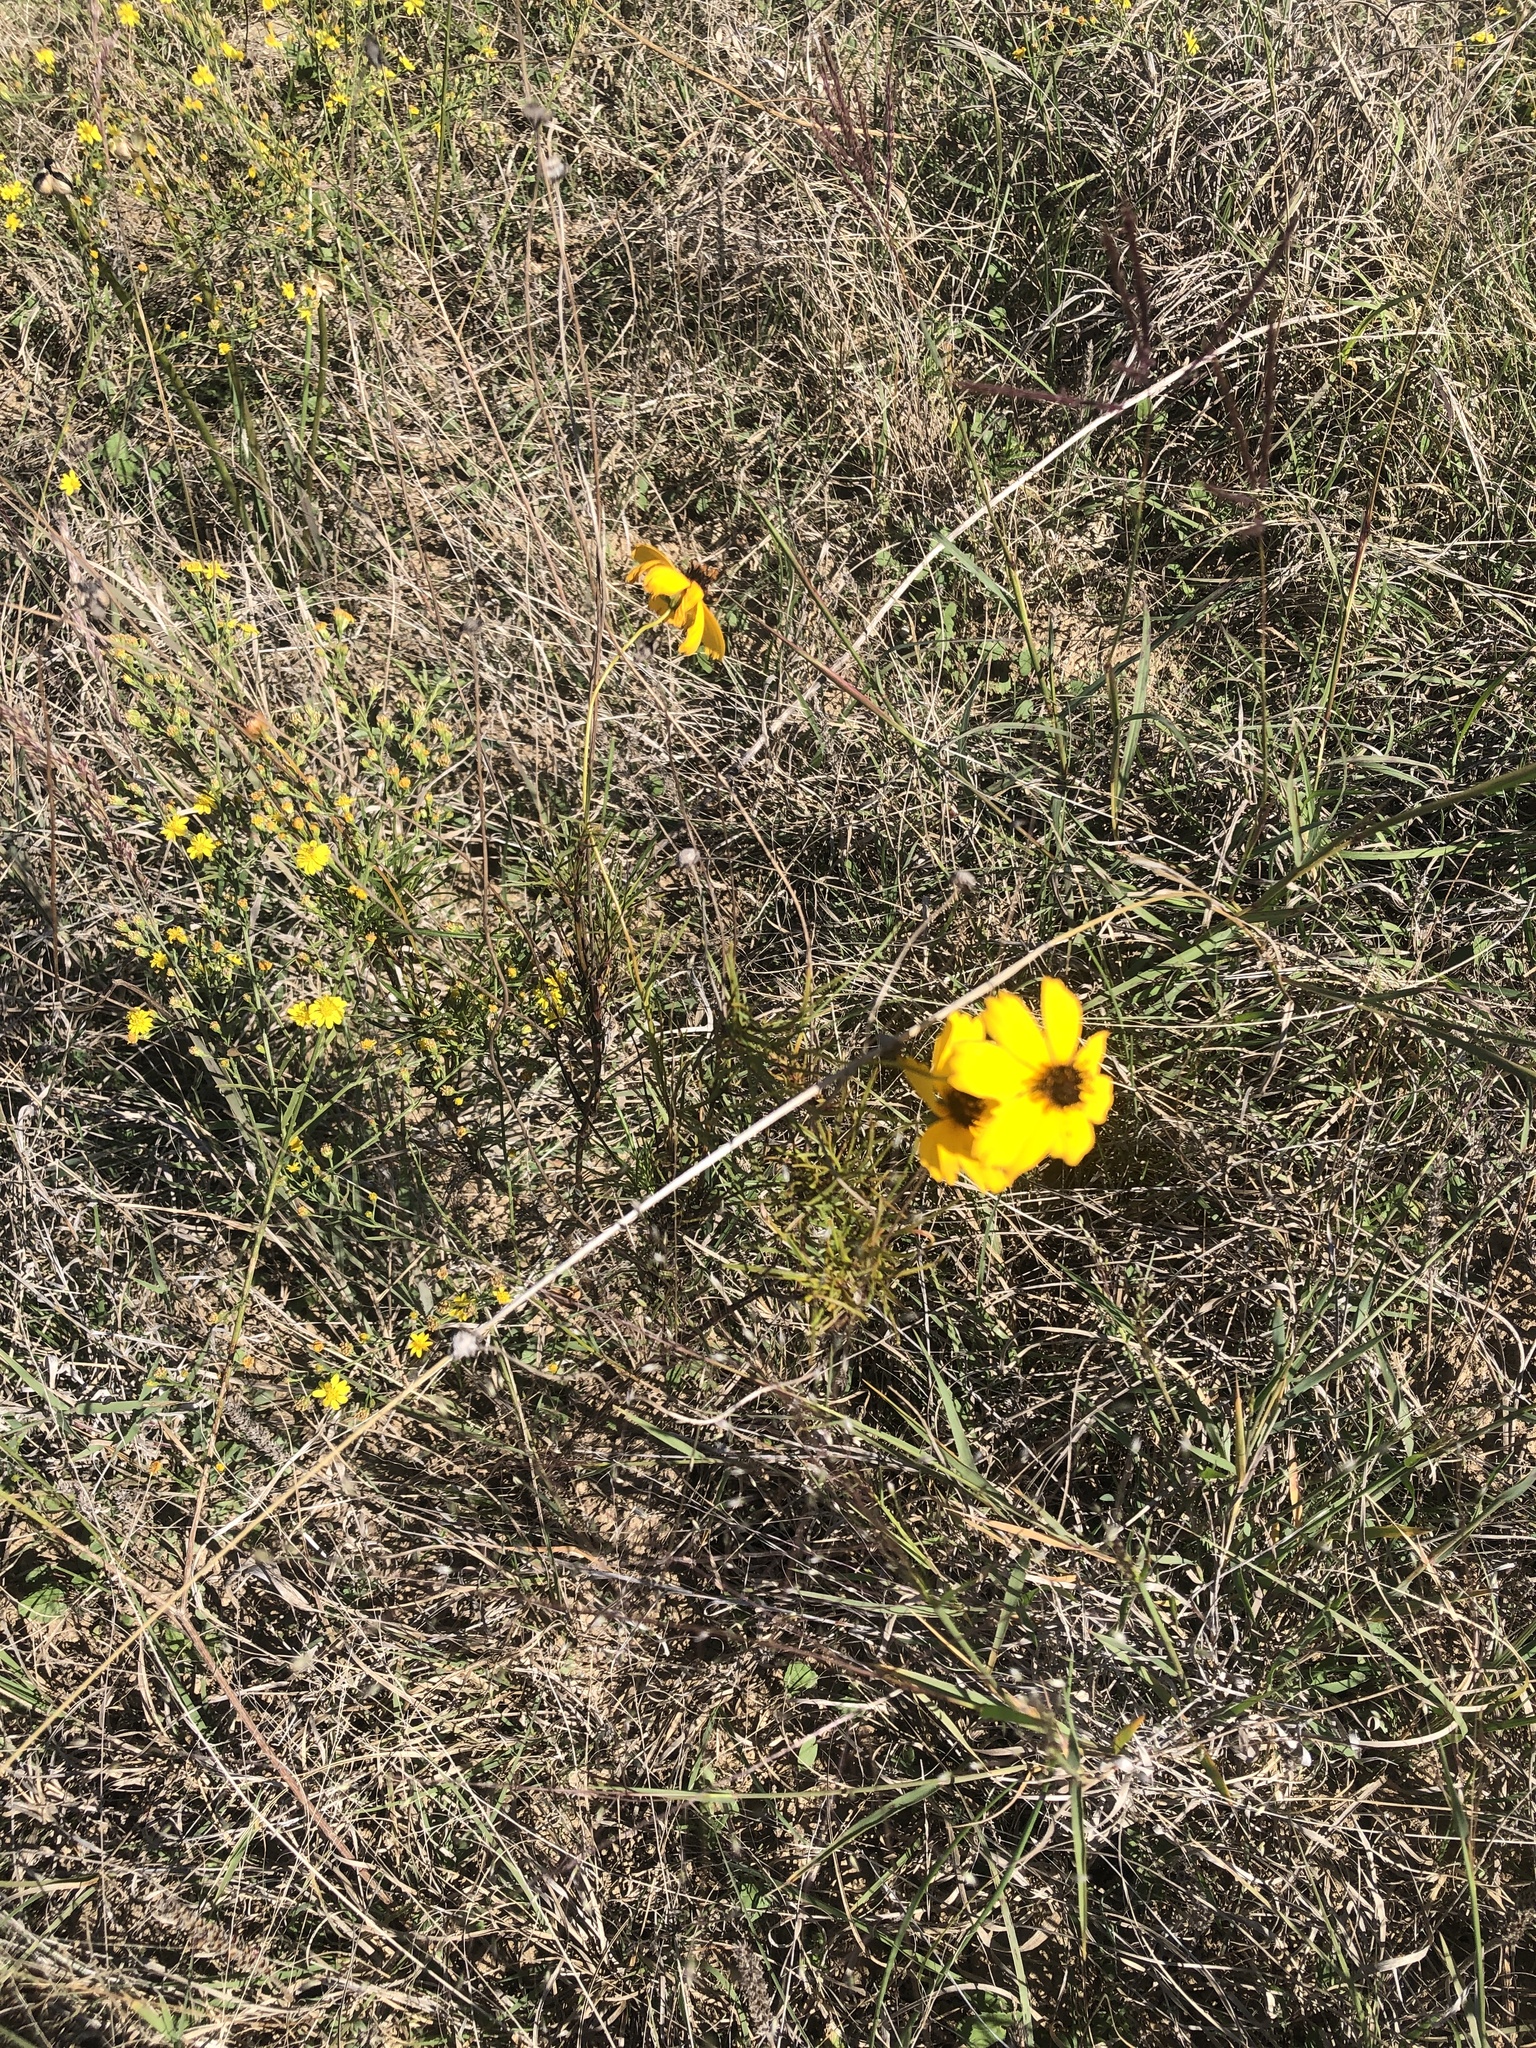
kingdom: Plantae
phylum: Tracheophyta
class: Magnoliopsida
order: Asterales
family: Asteraceae
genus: Thelesperma
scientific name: Thelesperma filifolium
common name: Stiff greenthread
